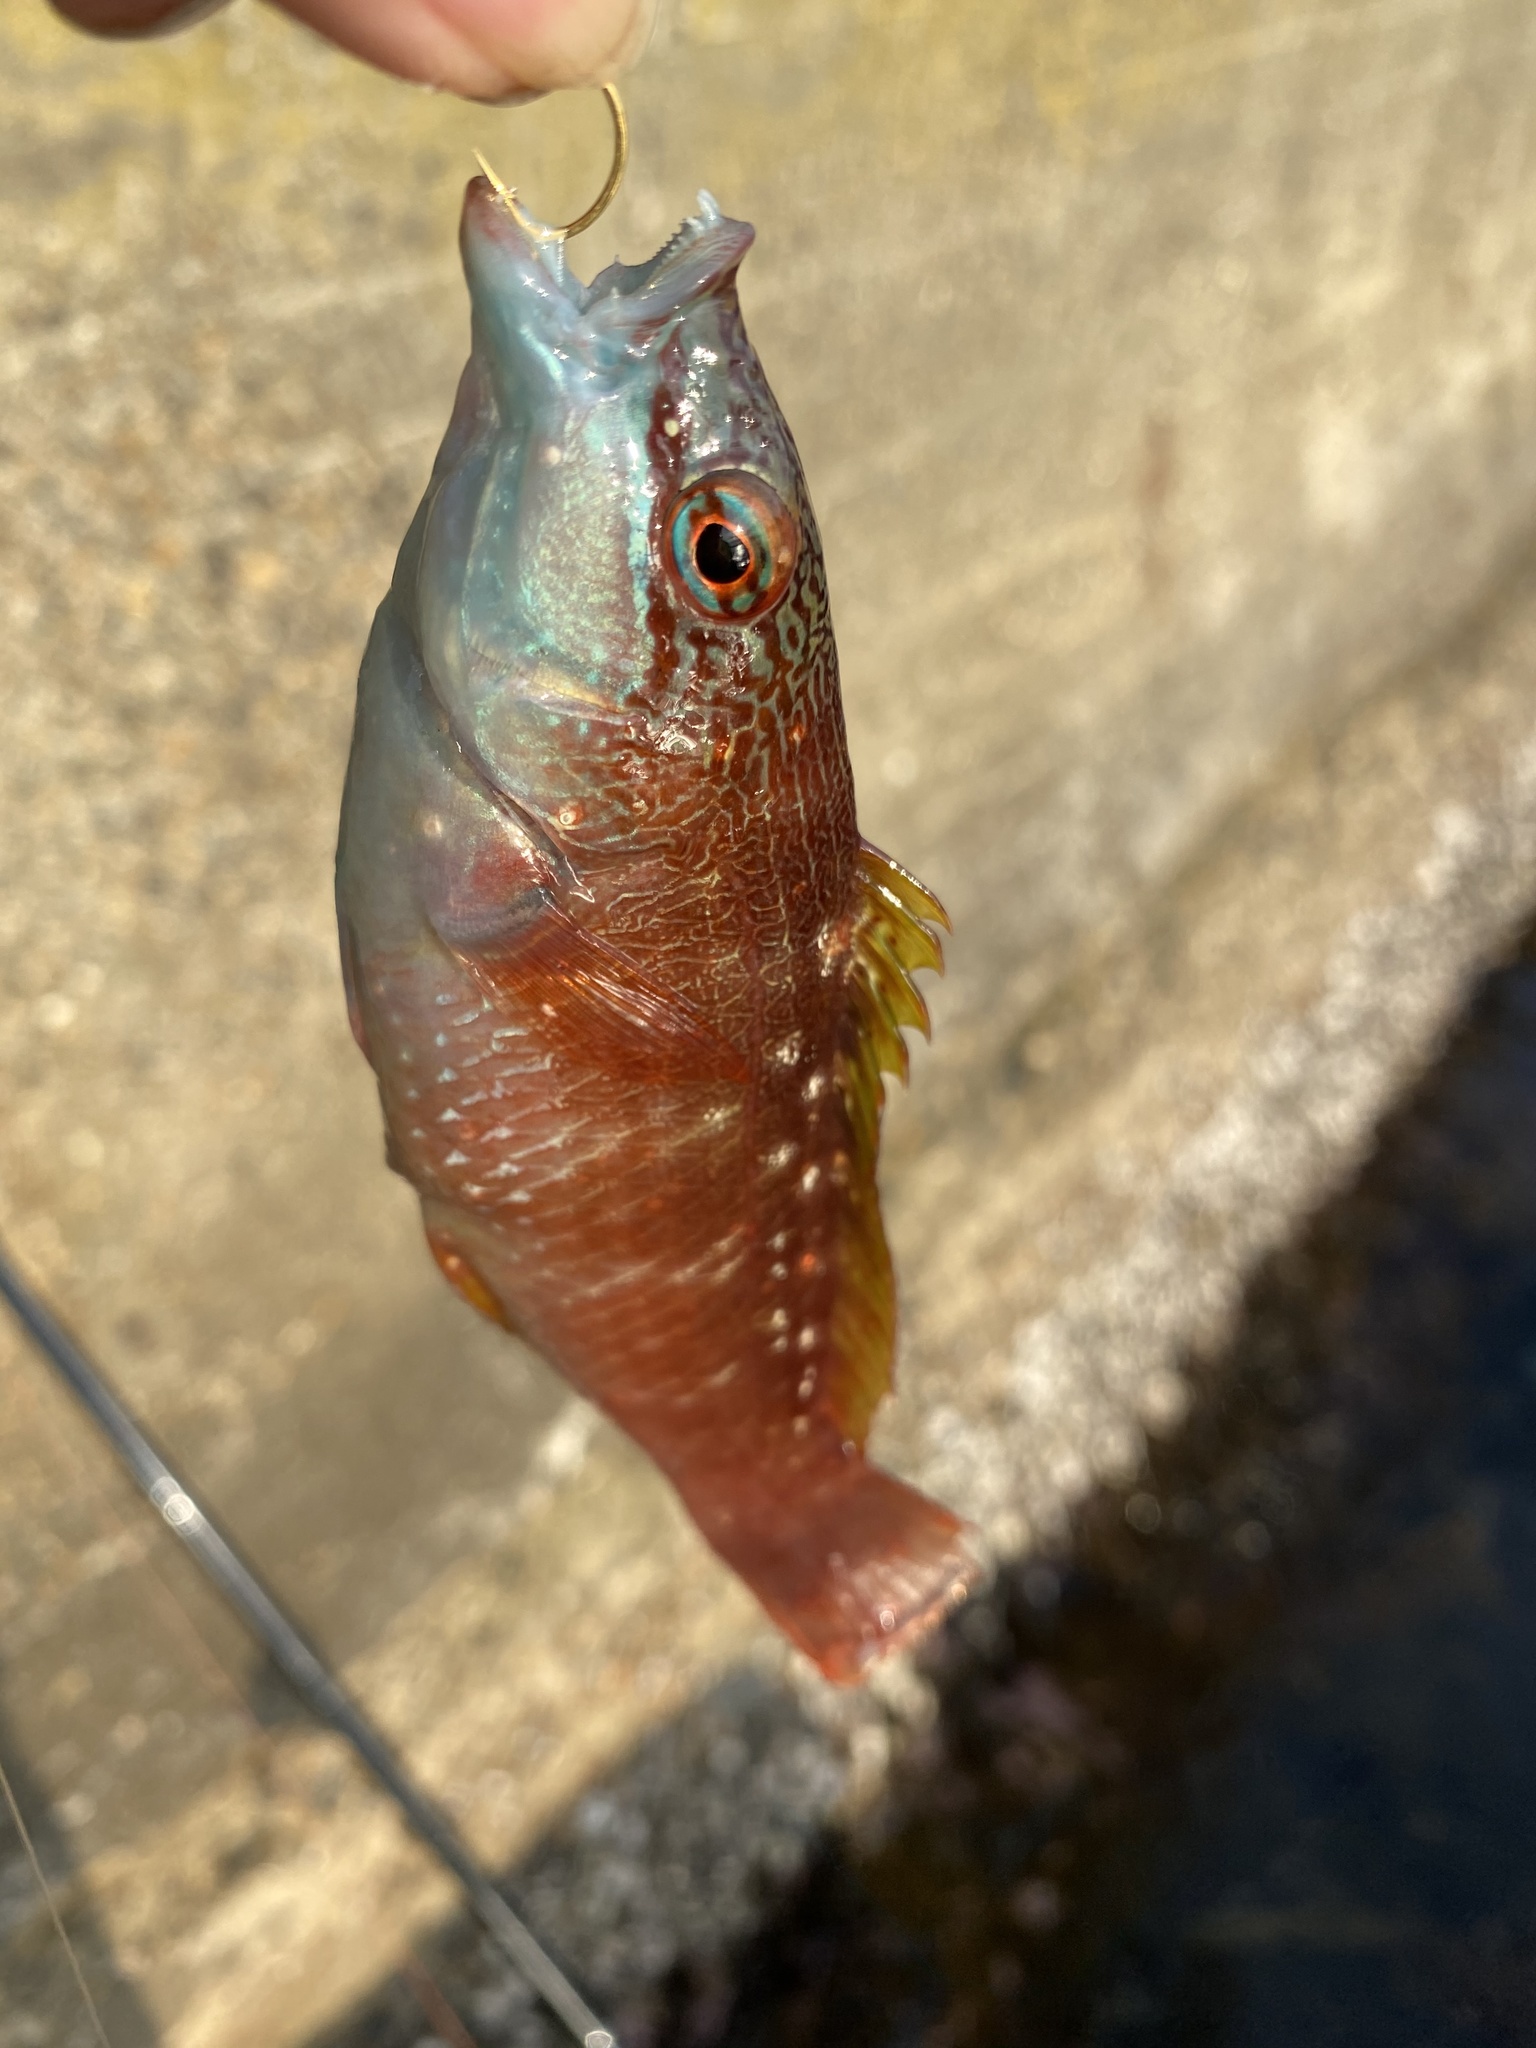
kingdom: Animalia
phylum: Chordata
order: Perciformes
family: Labridae
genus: Pseudolabrus
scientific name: Pseudolabrus sieboldi
